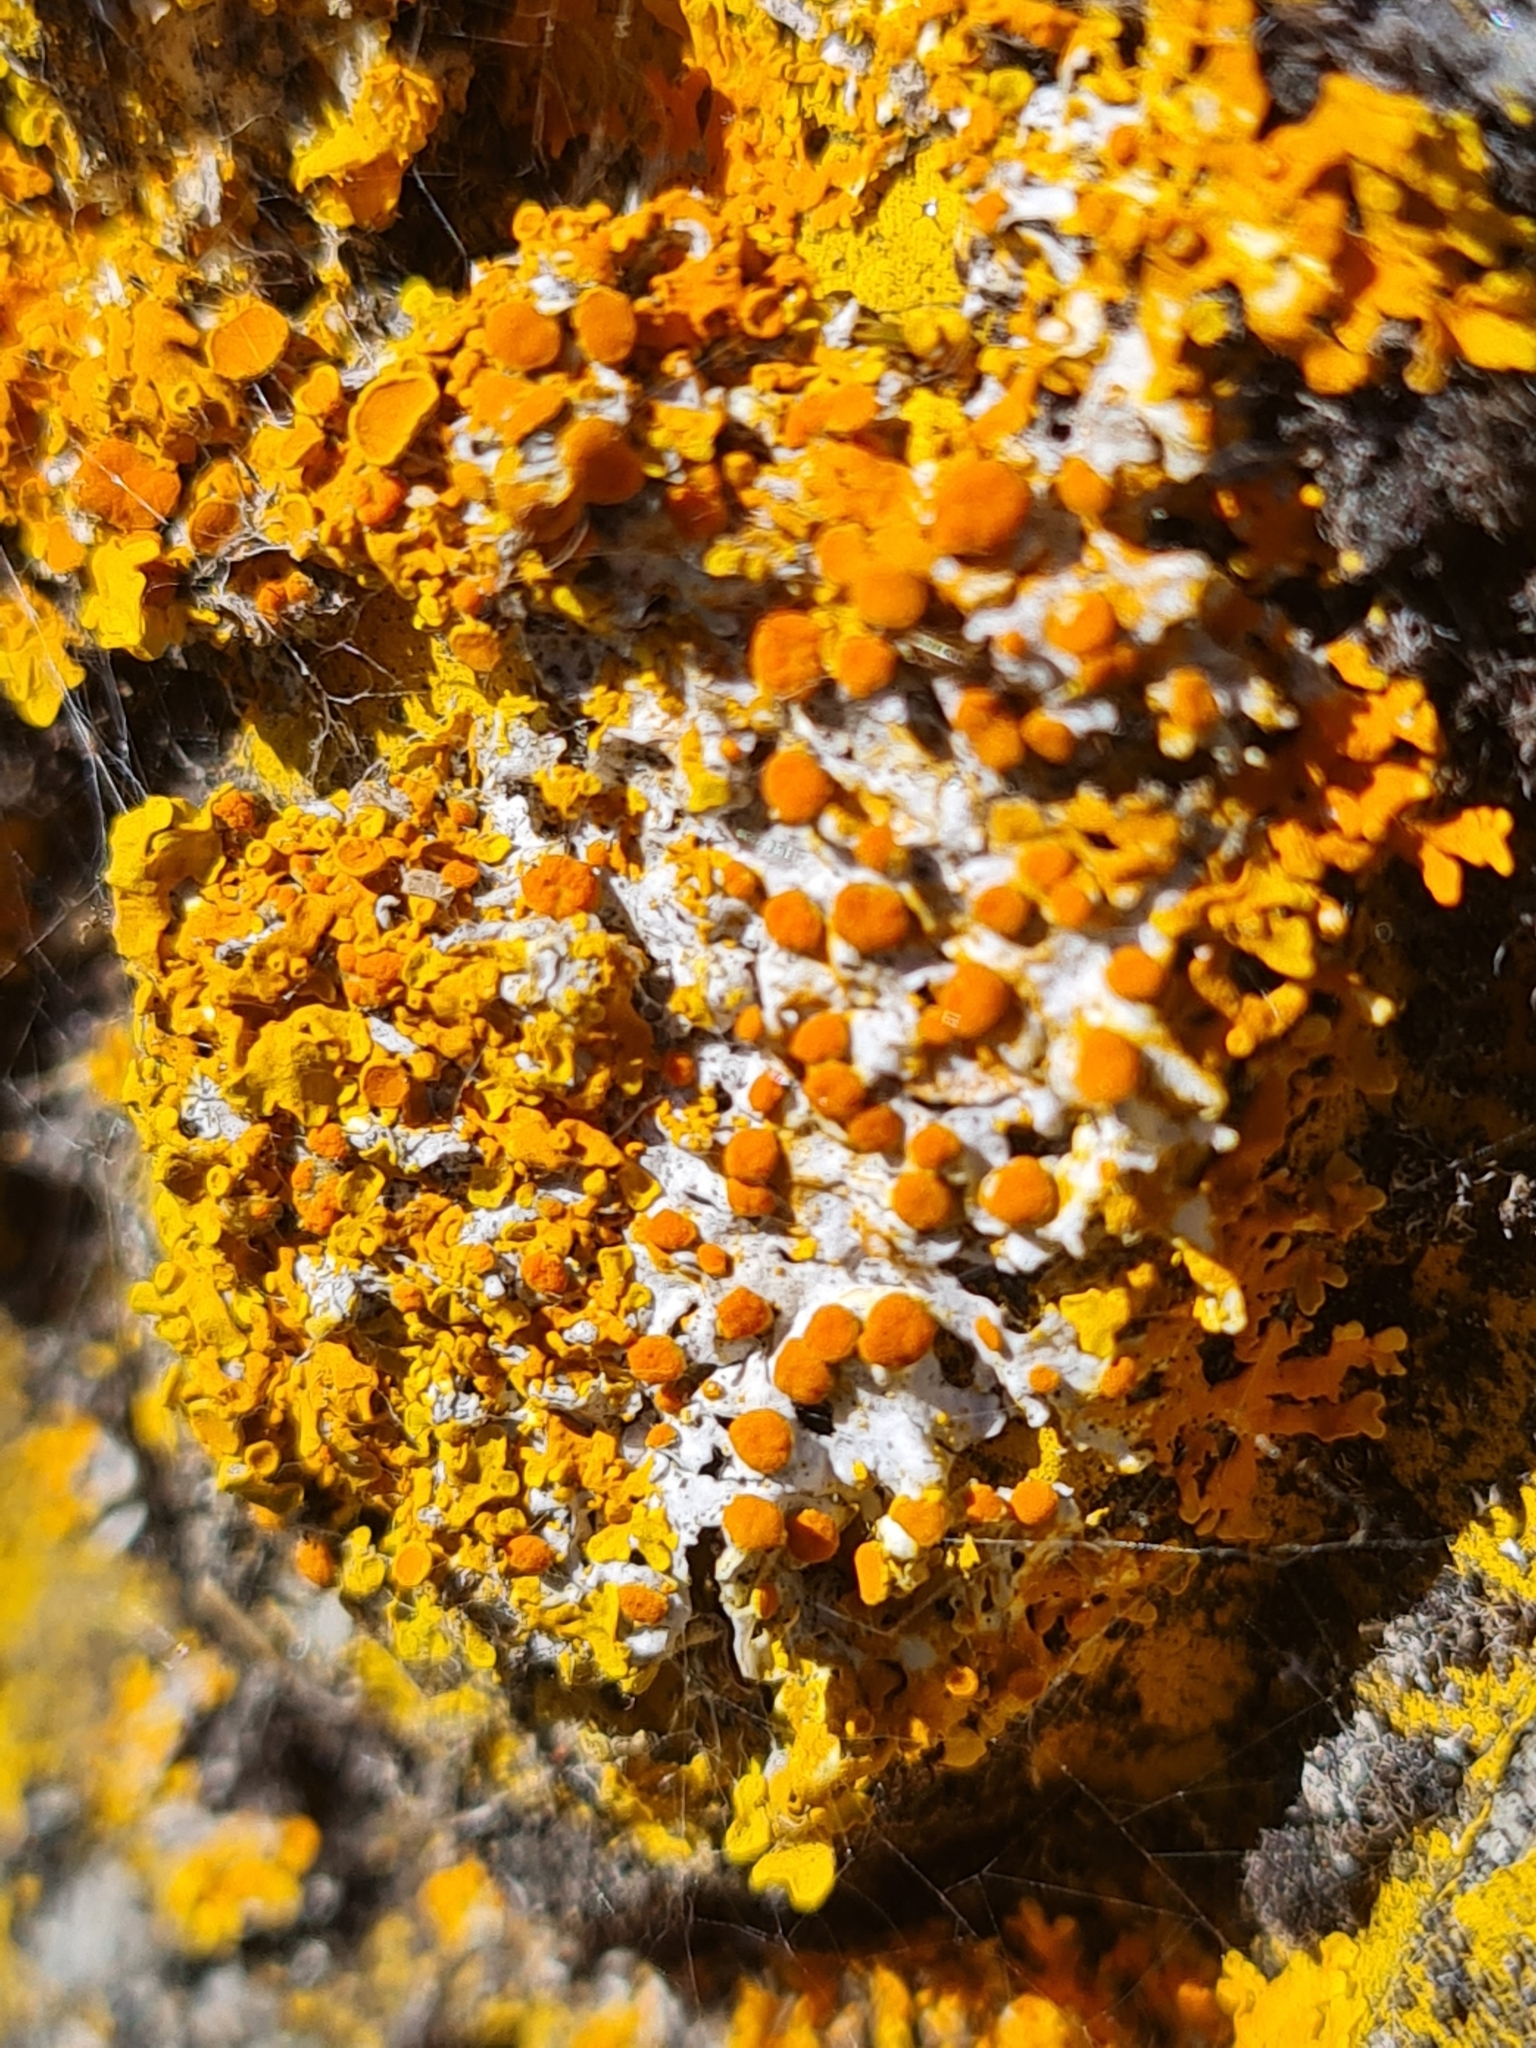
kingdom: Fungi
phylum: Ascomycota
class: Lecanoromycetes
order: Teloschistales
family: Teloschistaceae
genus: Xanthoria
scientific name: Xanthoria parietina
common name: Common orange lichen
